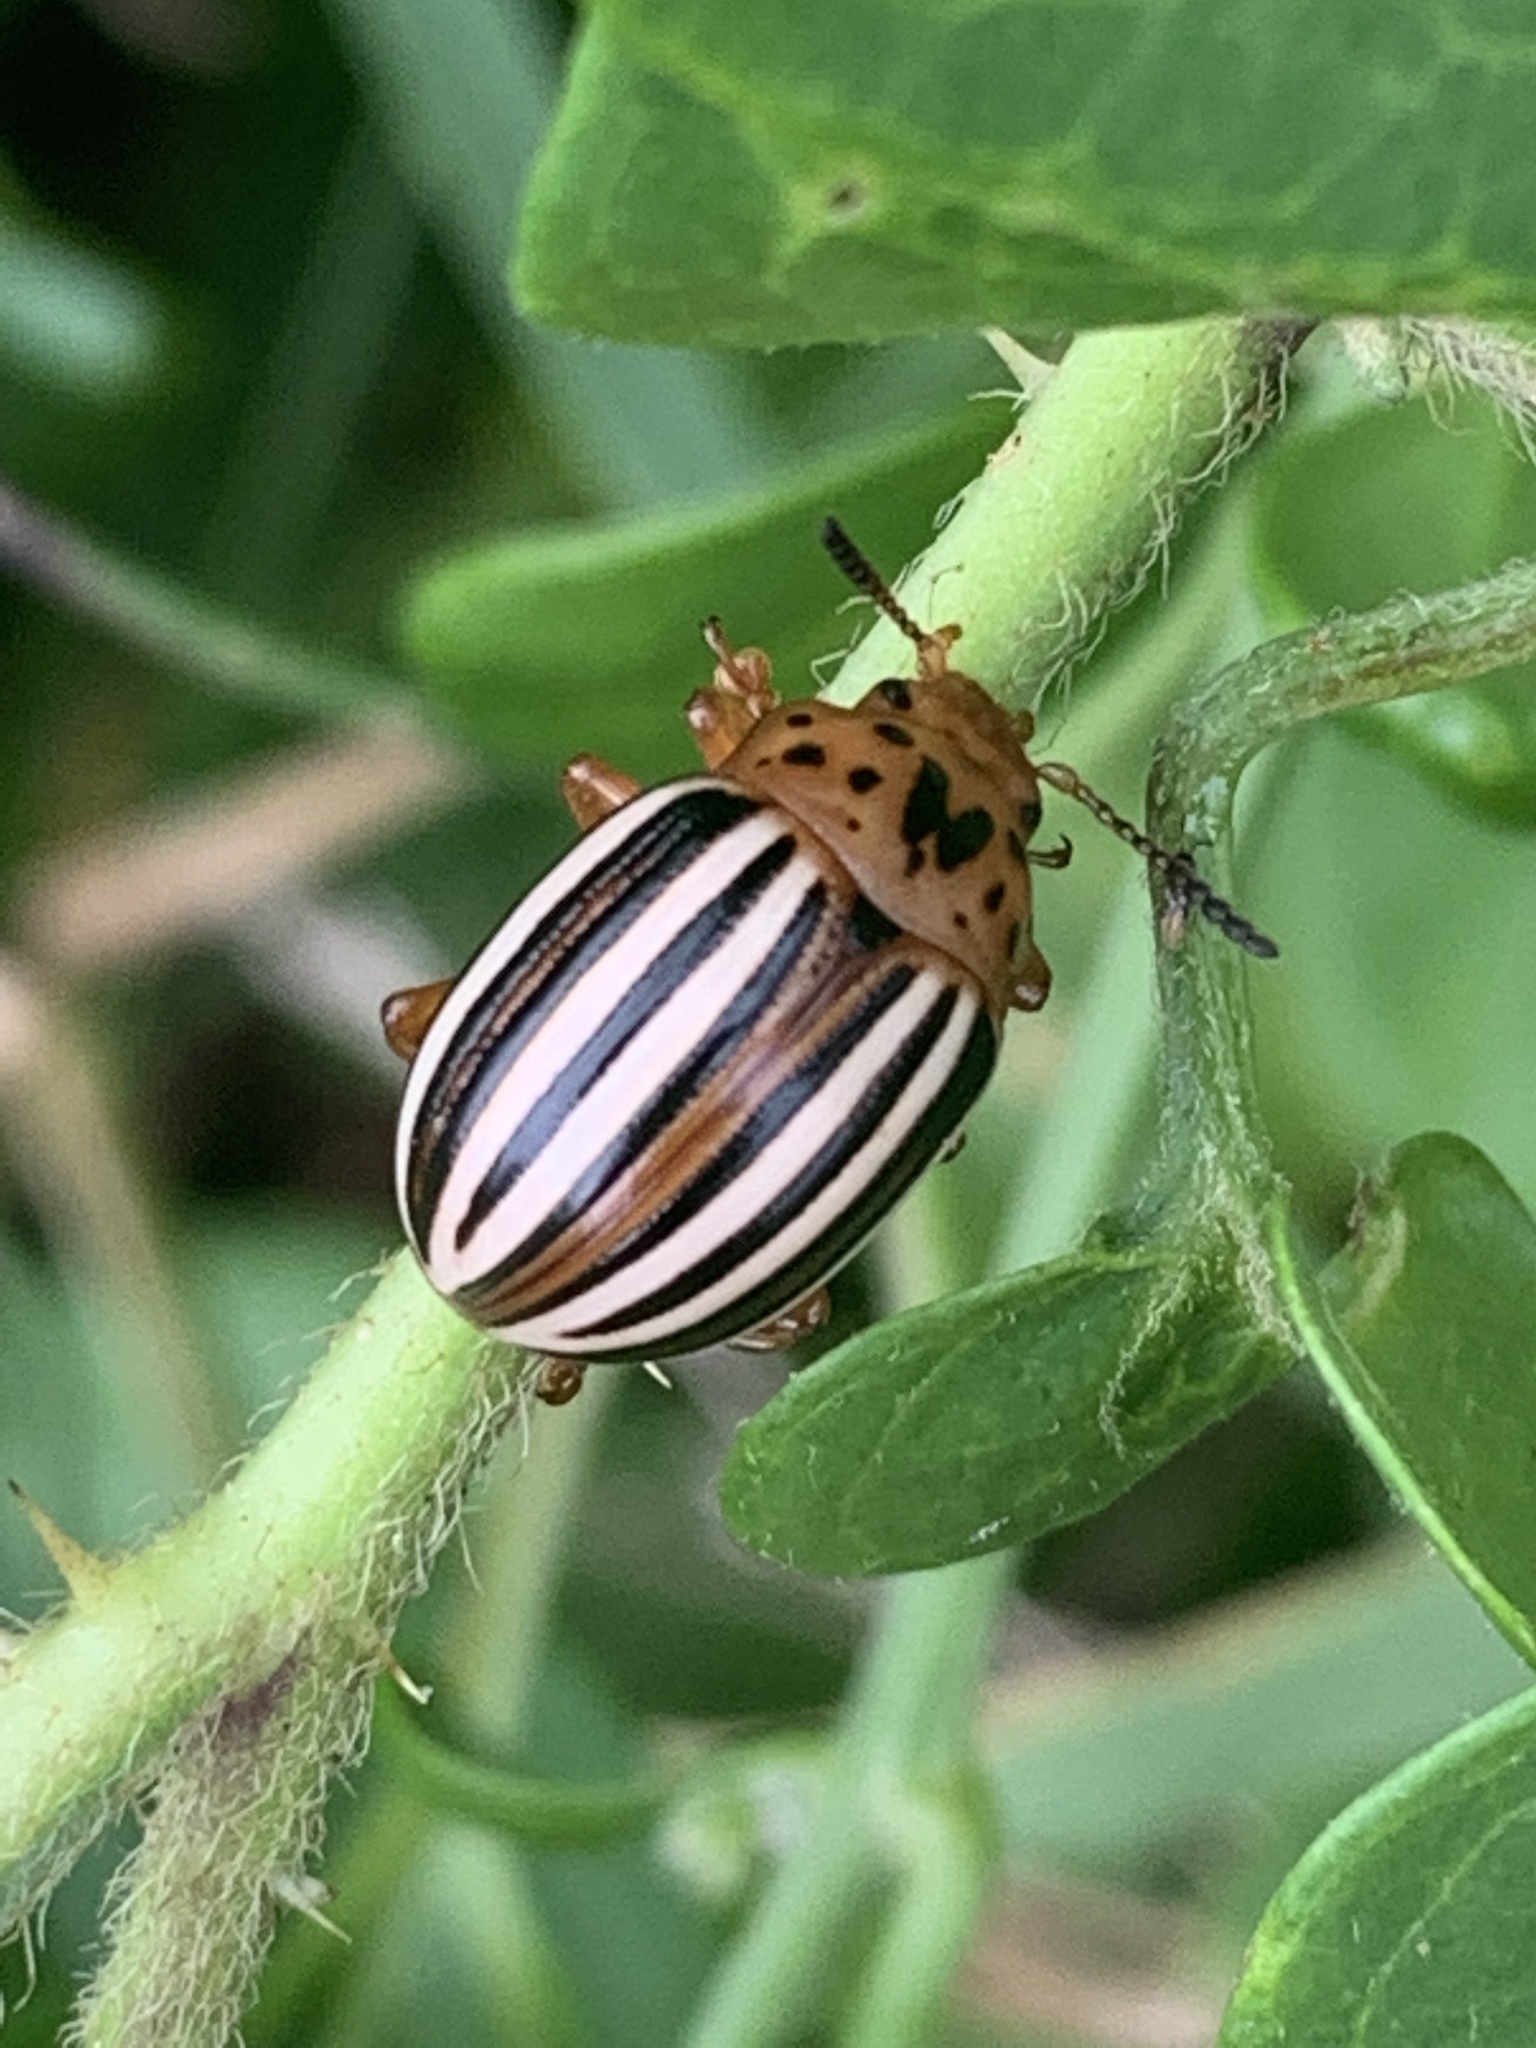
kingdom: Animalia
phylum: Arthropoda
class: Insecta
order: Coleoptera
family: Chrysomelidae
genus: Leptinotarsa
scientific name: Leptinotarsa juncta
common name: False potato beetle
